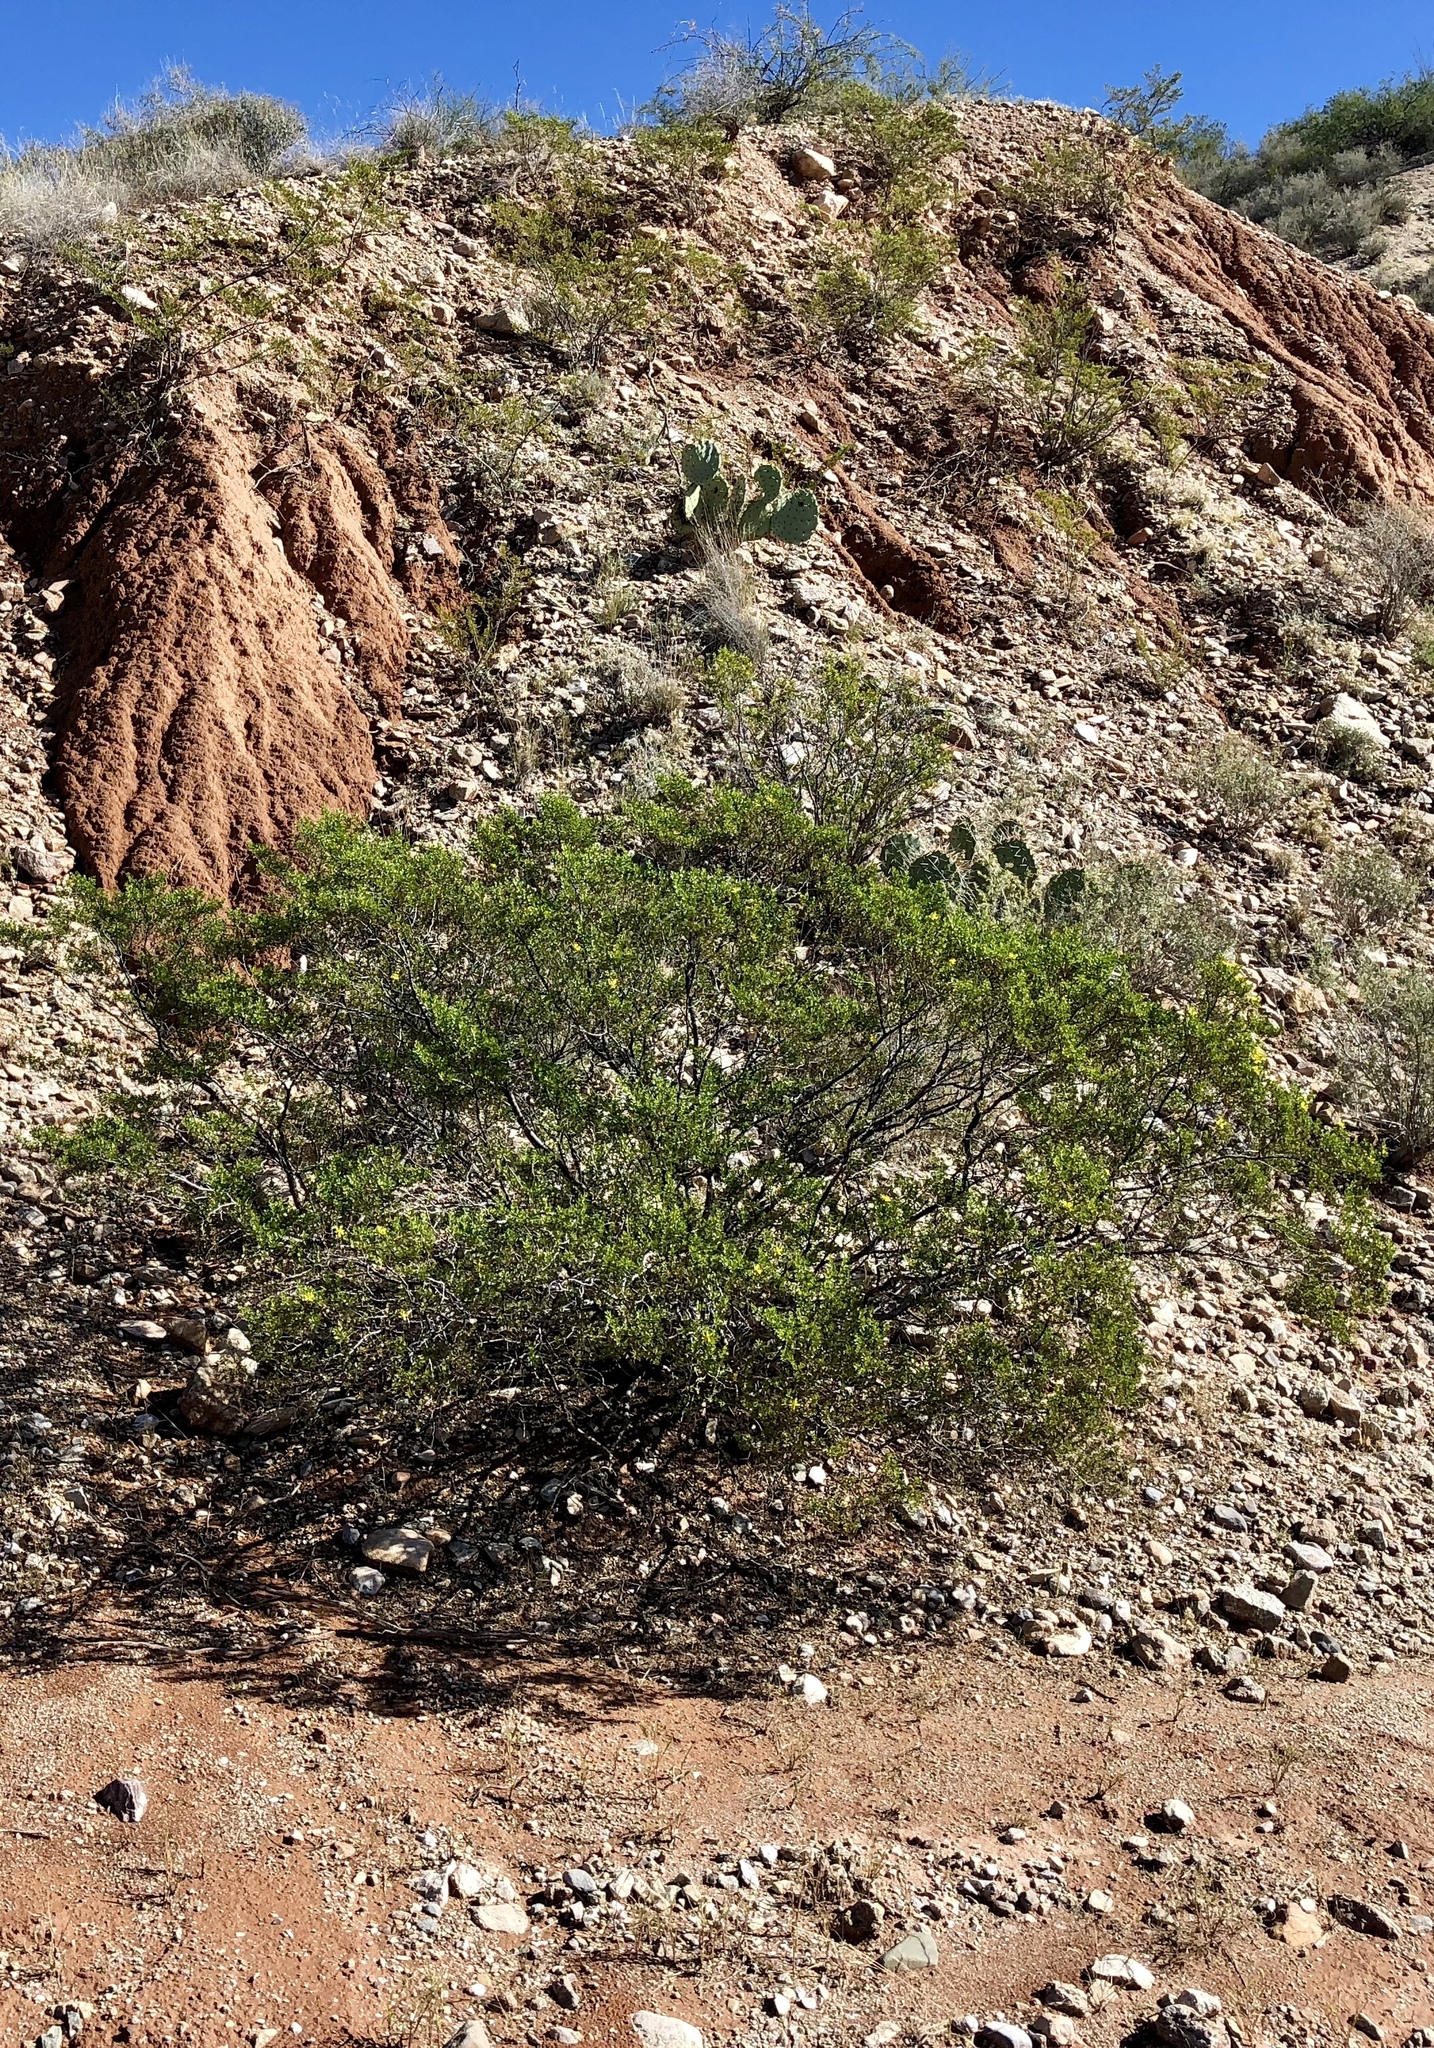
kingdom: Plantae
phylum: Tracheophyta
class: Magnoliopsida
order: Zygophyllales
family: Zygophyllaceae
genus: Larrea
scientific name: Larrea tridentata
